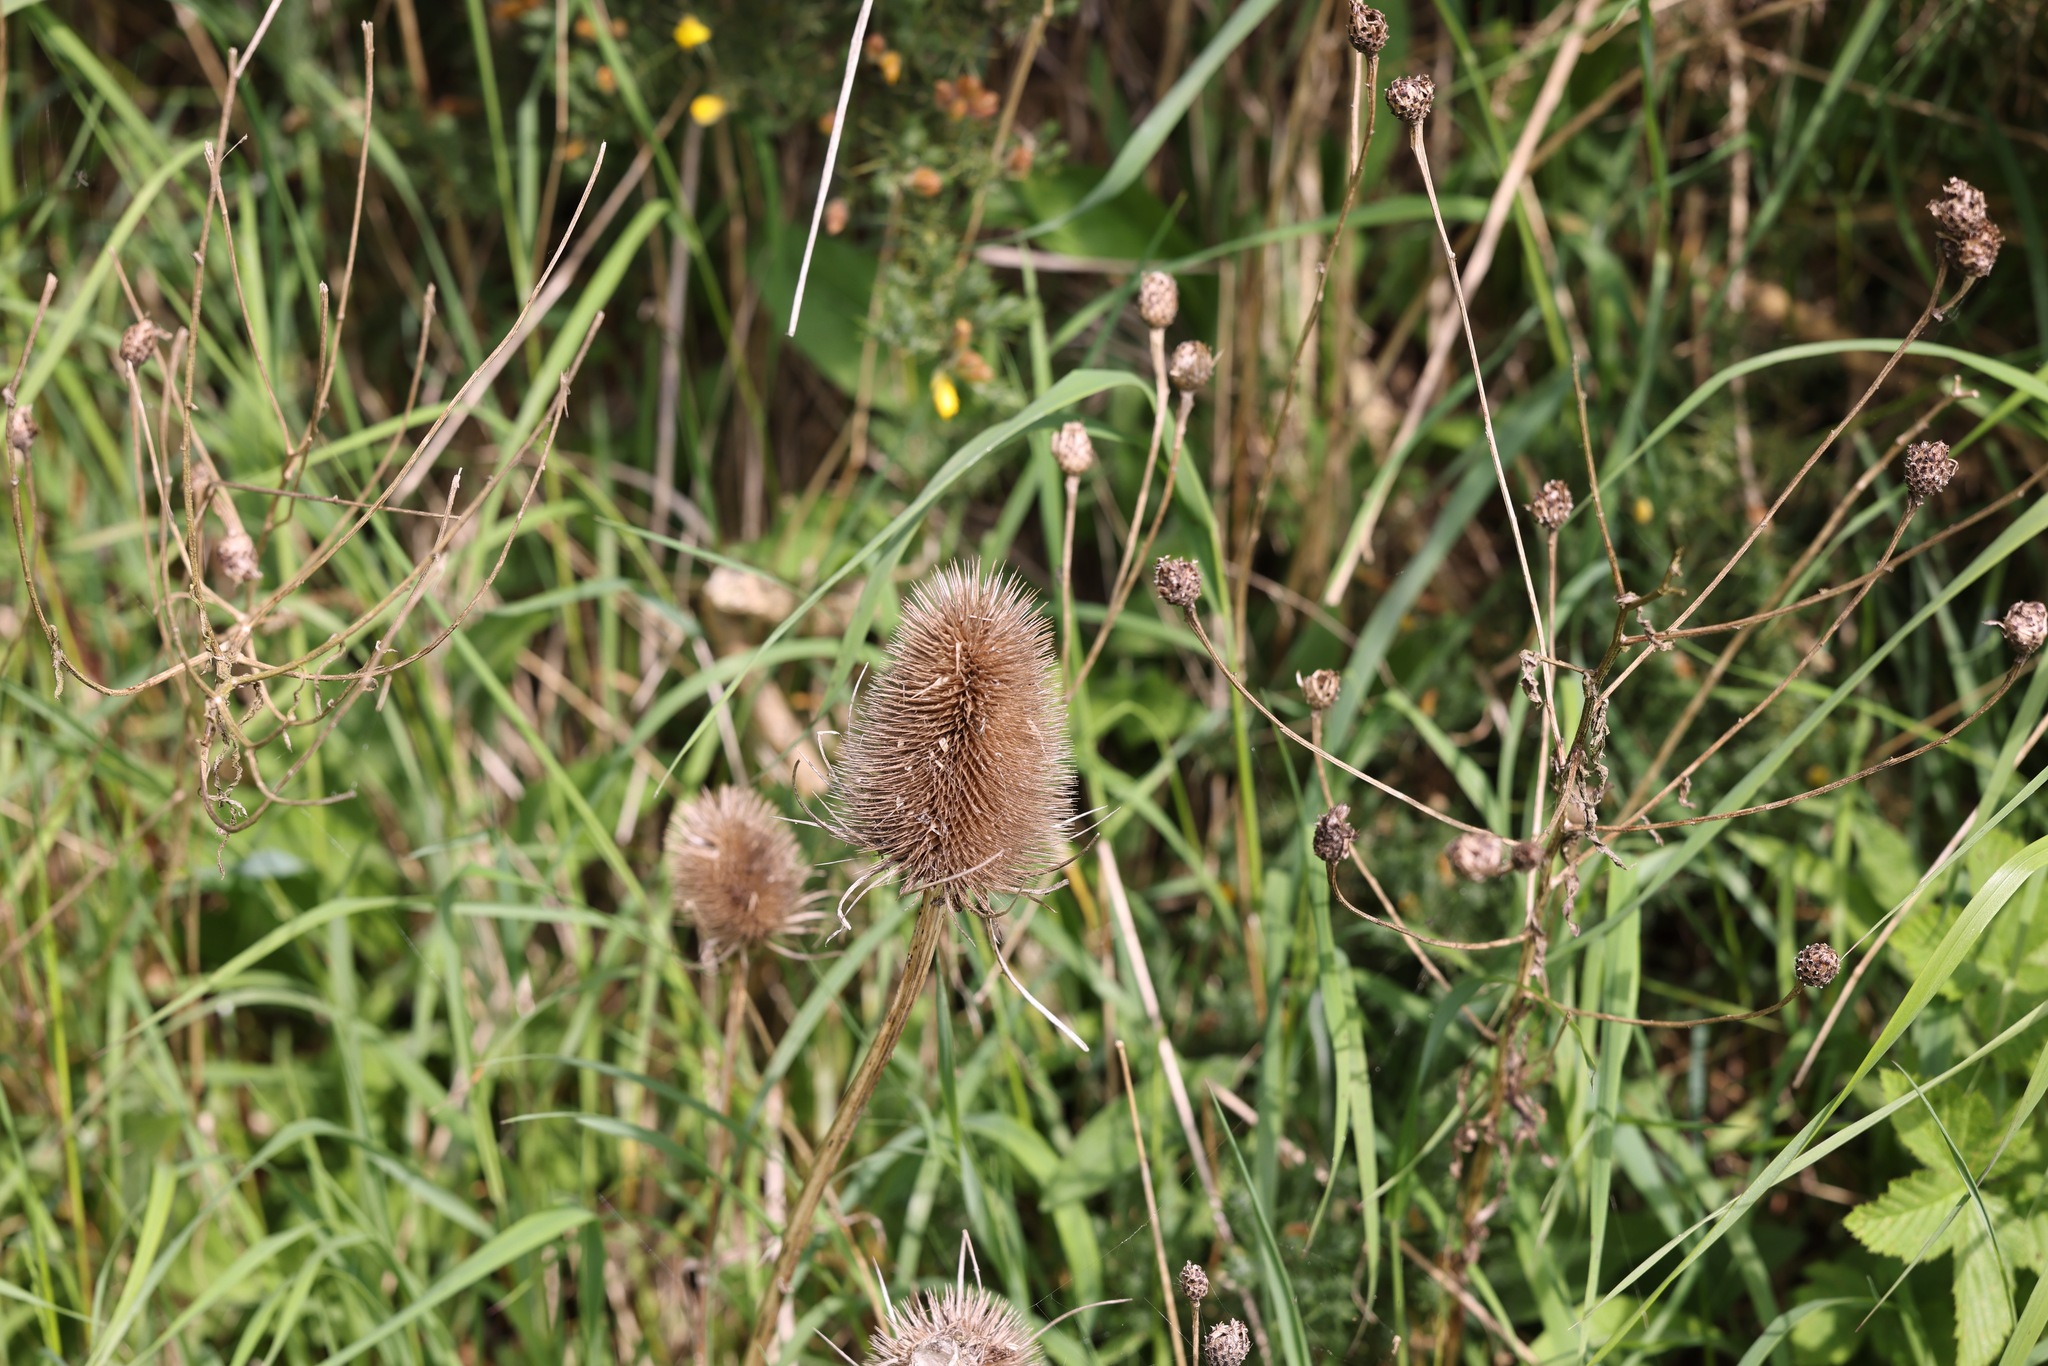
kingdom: Plantae
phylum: Tracheophyta
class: Magnoliopsida
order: Dipsacales
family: Caprifoliaceae
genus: Dipsacus
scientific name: Dipsacus fullonum
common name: Teasel
